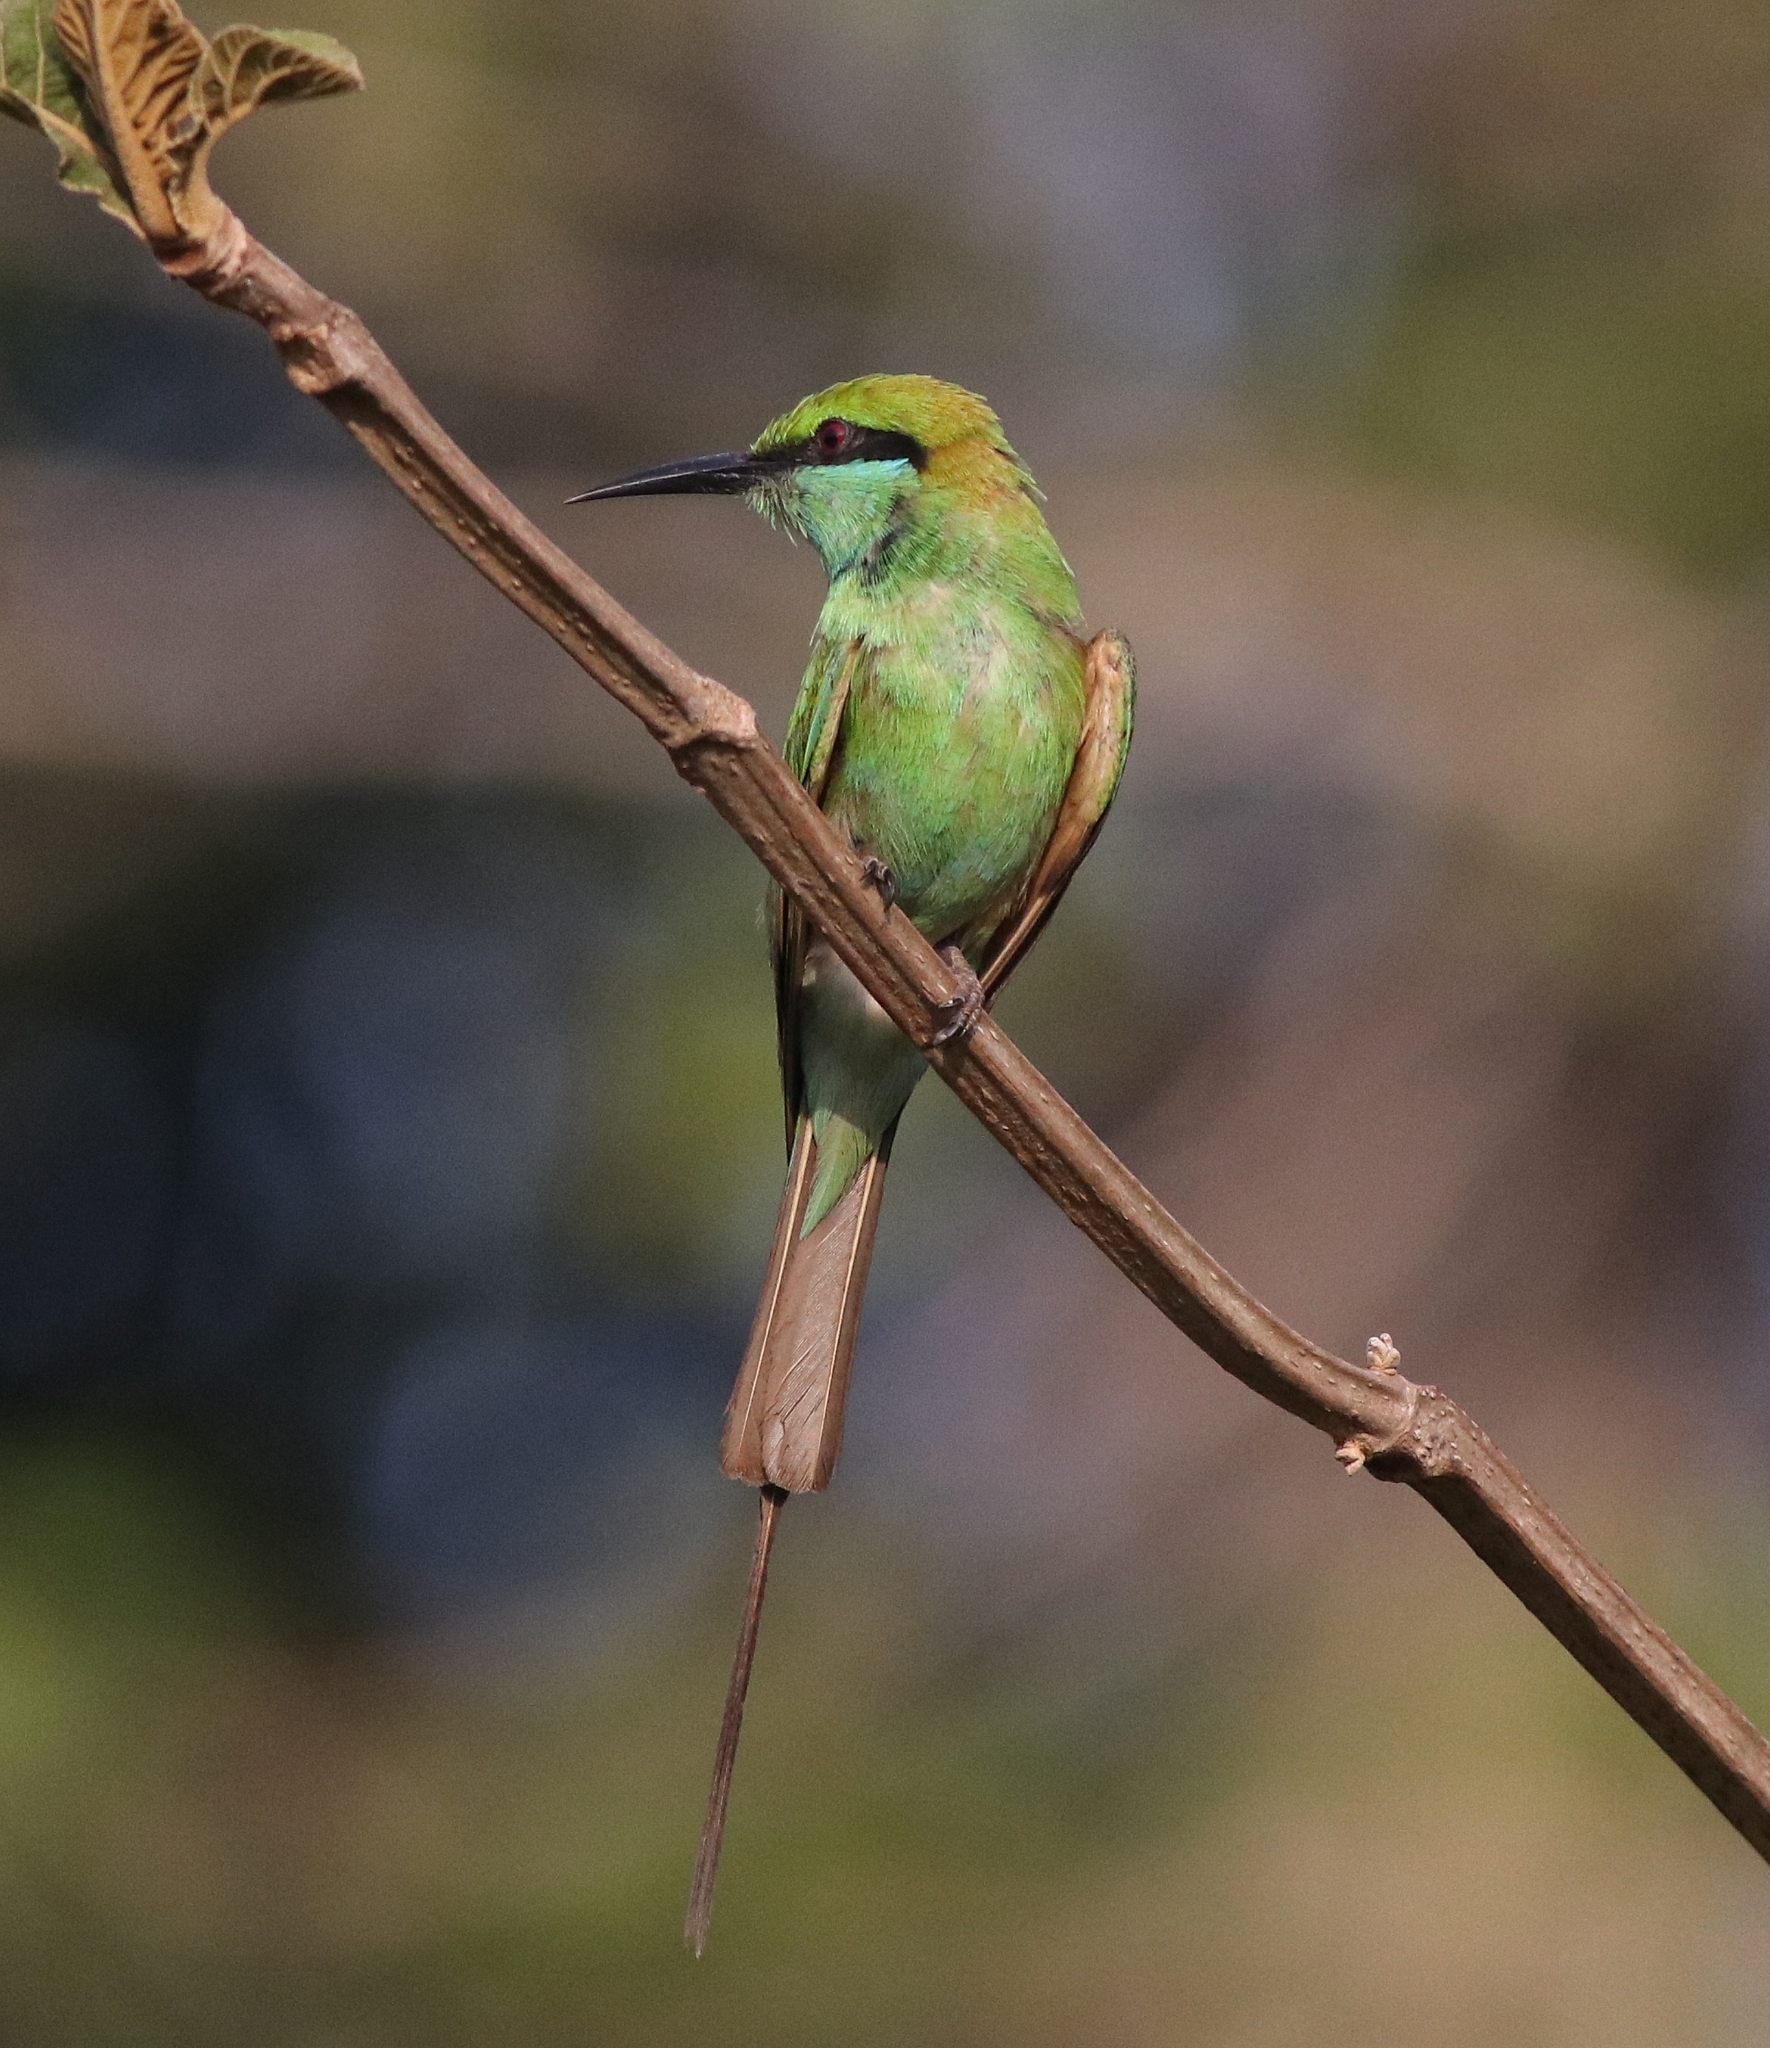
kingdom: Animalia
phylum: Chordata
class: Aves
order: Coraciiformes
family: Meropidae
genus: Merops
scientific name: Merops orientalis
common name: Green bee-eater
